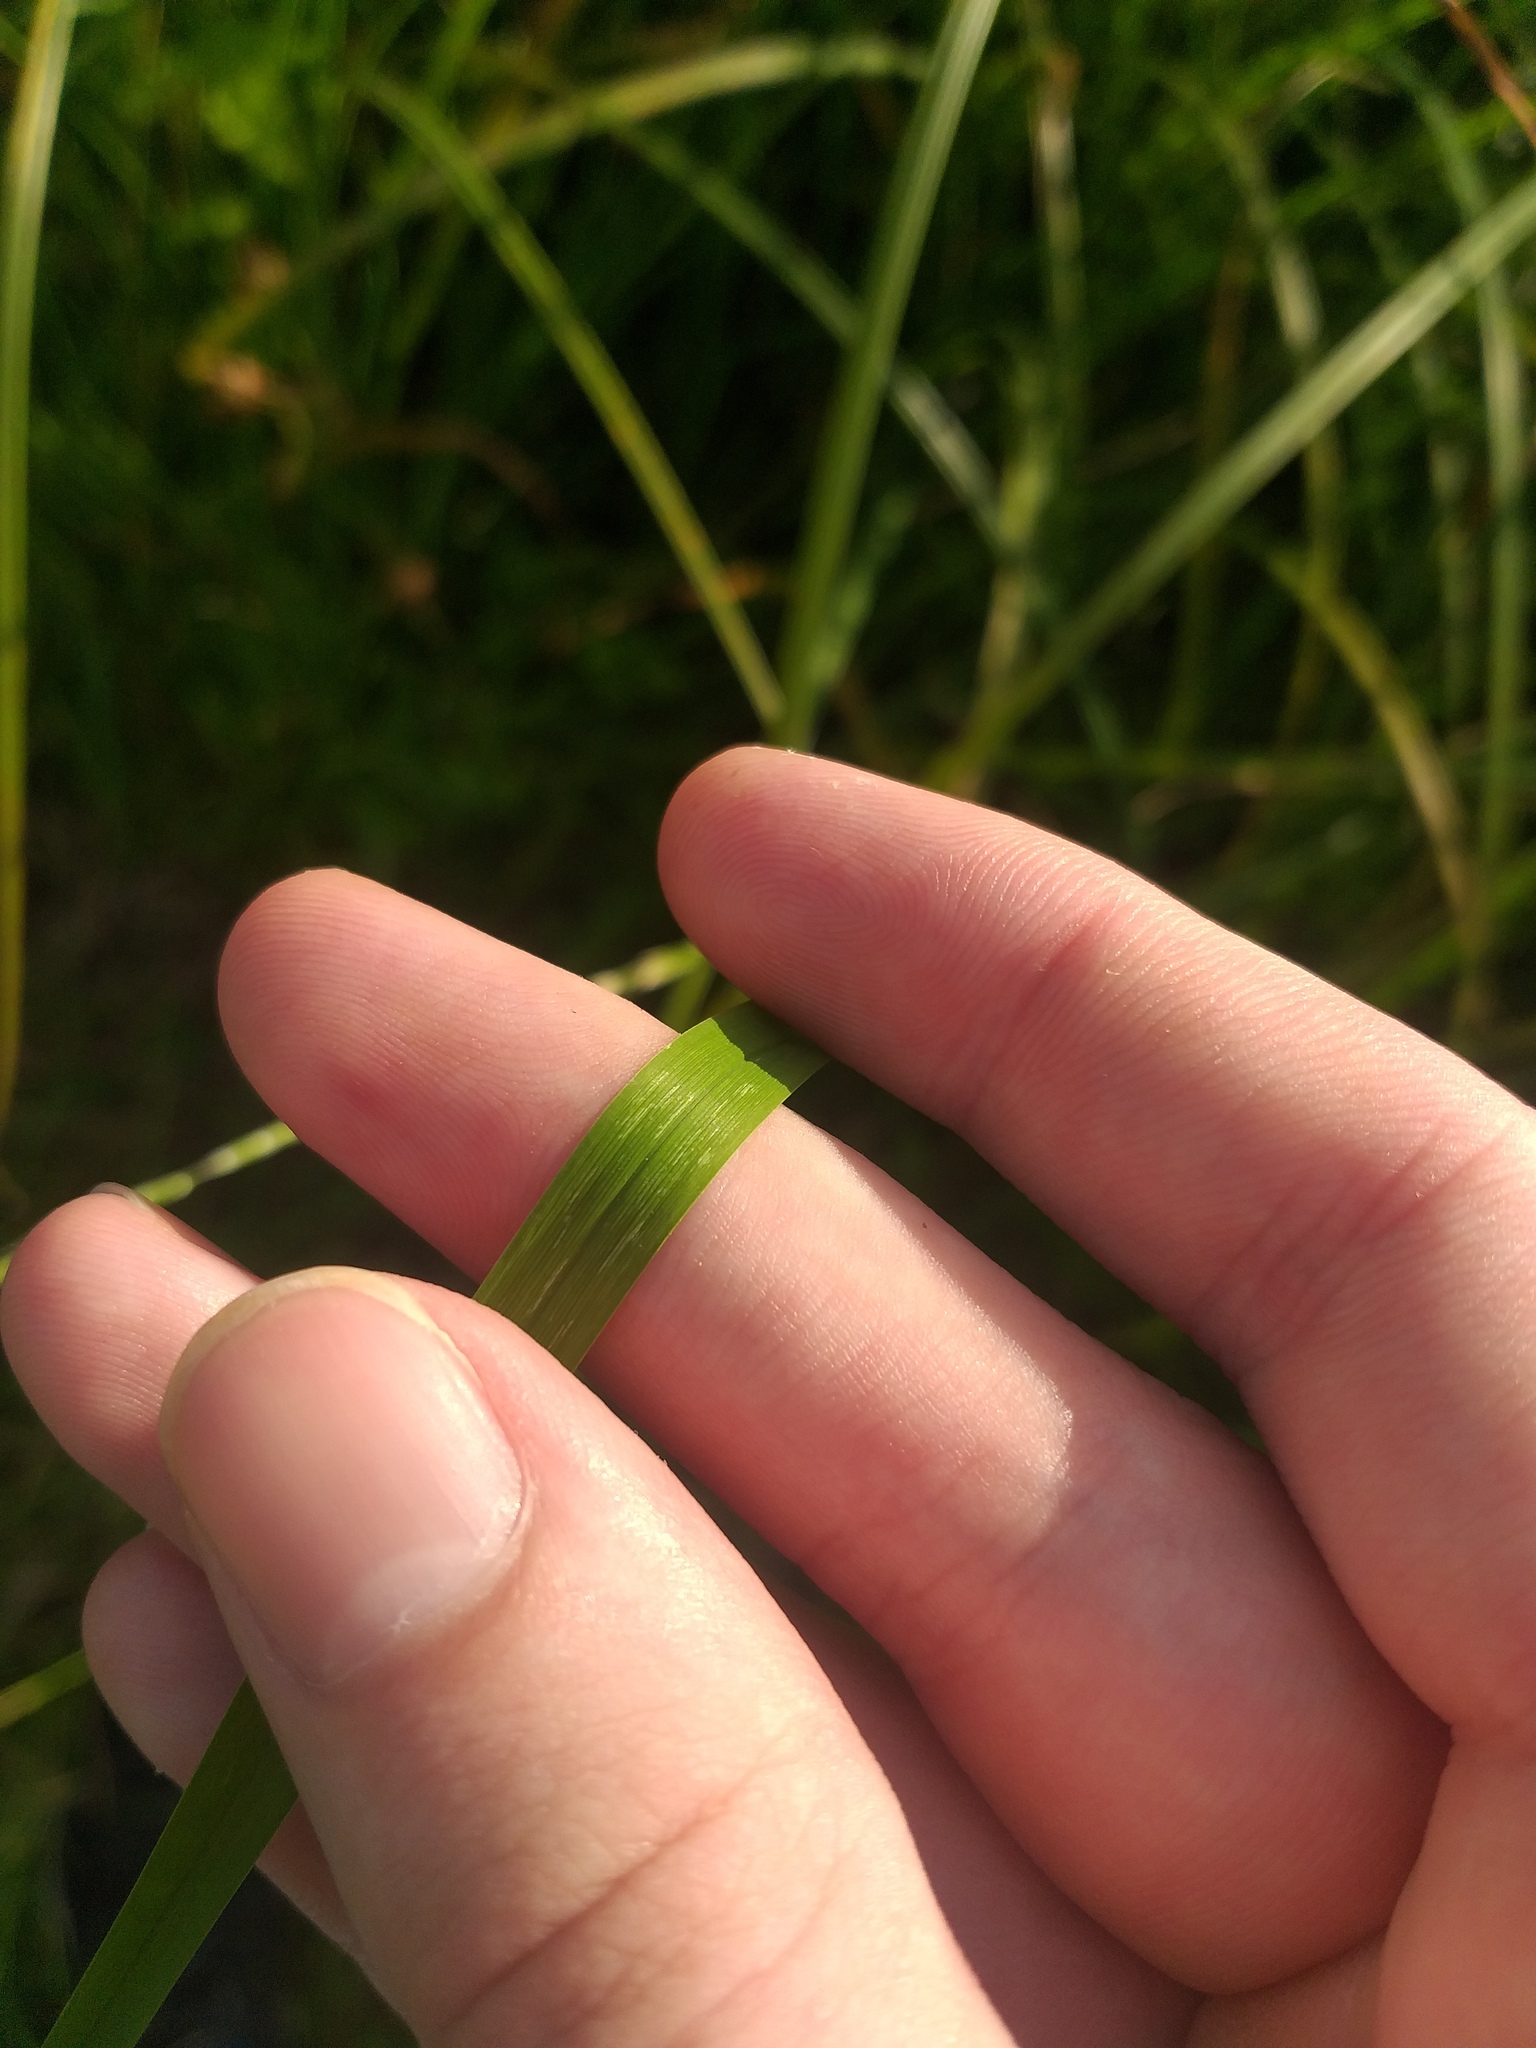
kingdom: Plantae
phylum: Tracheophyta
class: Liliopsida
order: Poales
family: Poaceae
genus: Glyceria
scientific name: Glyceria fluitans
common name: Floating sweet-grass
